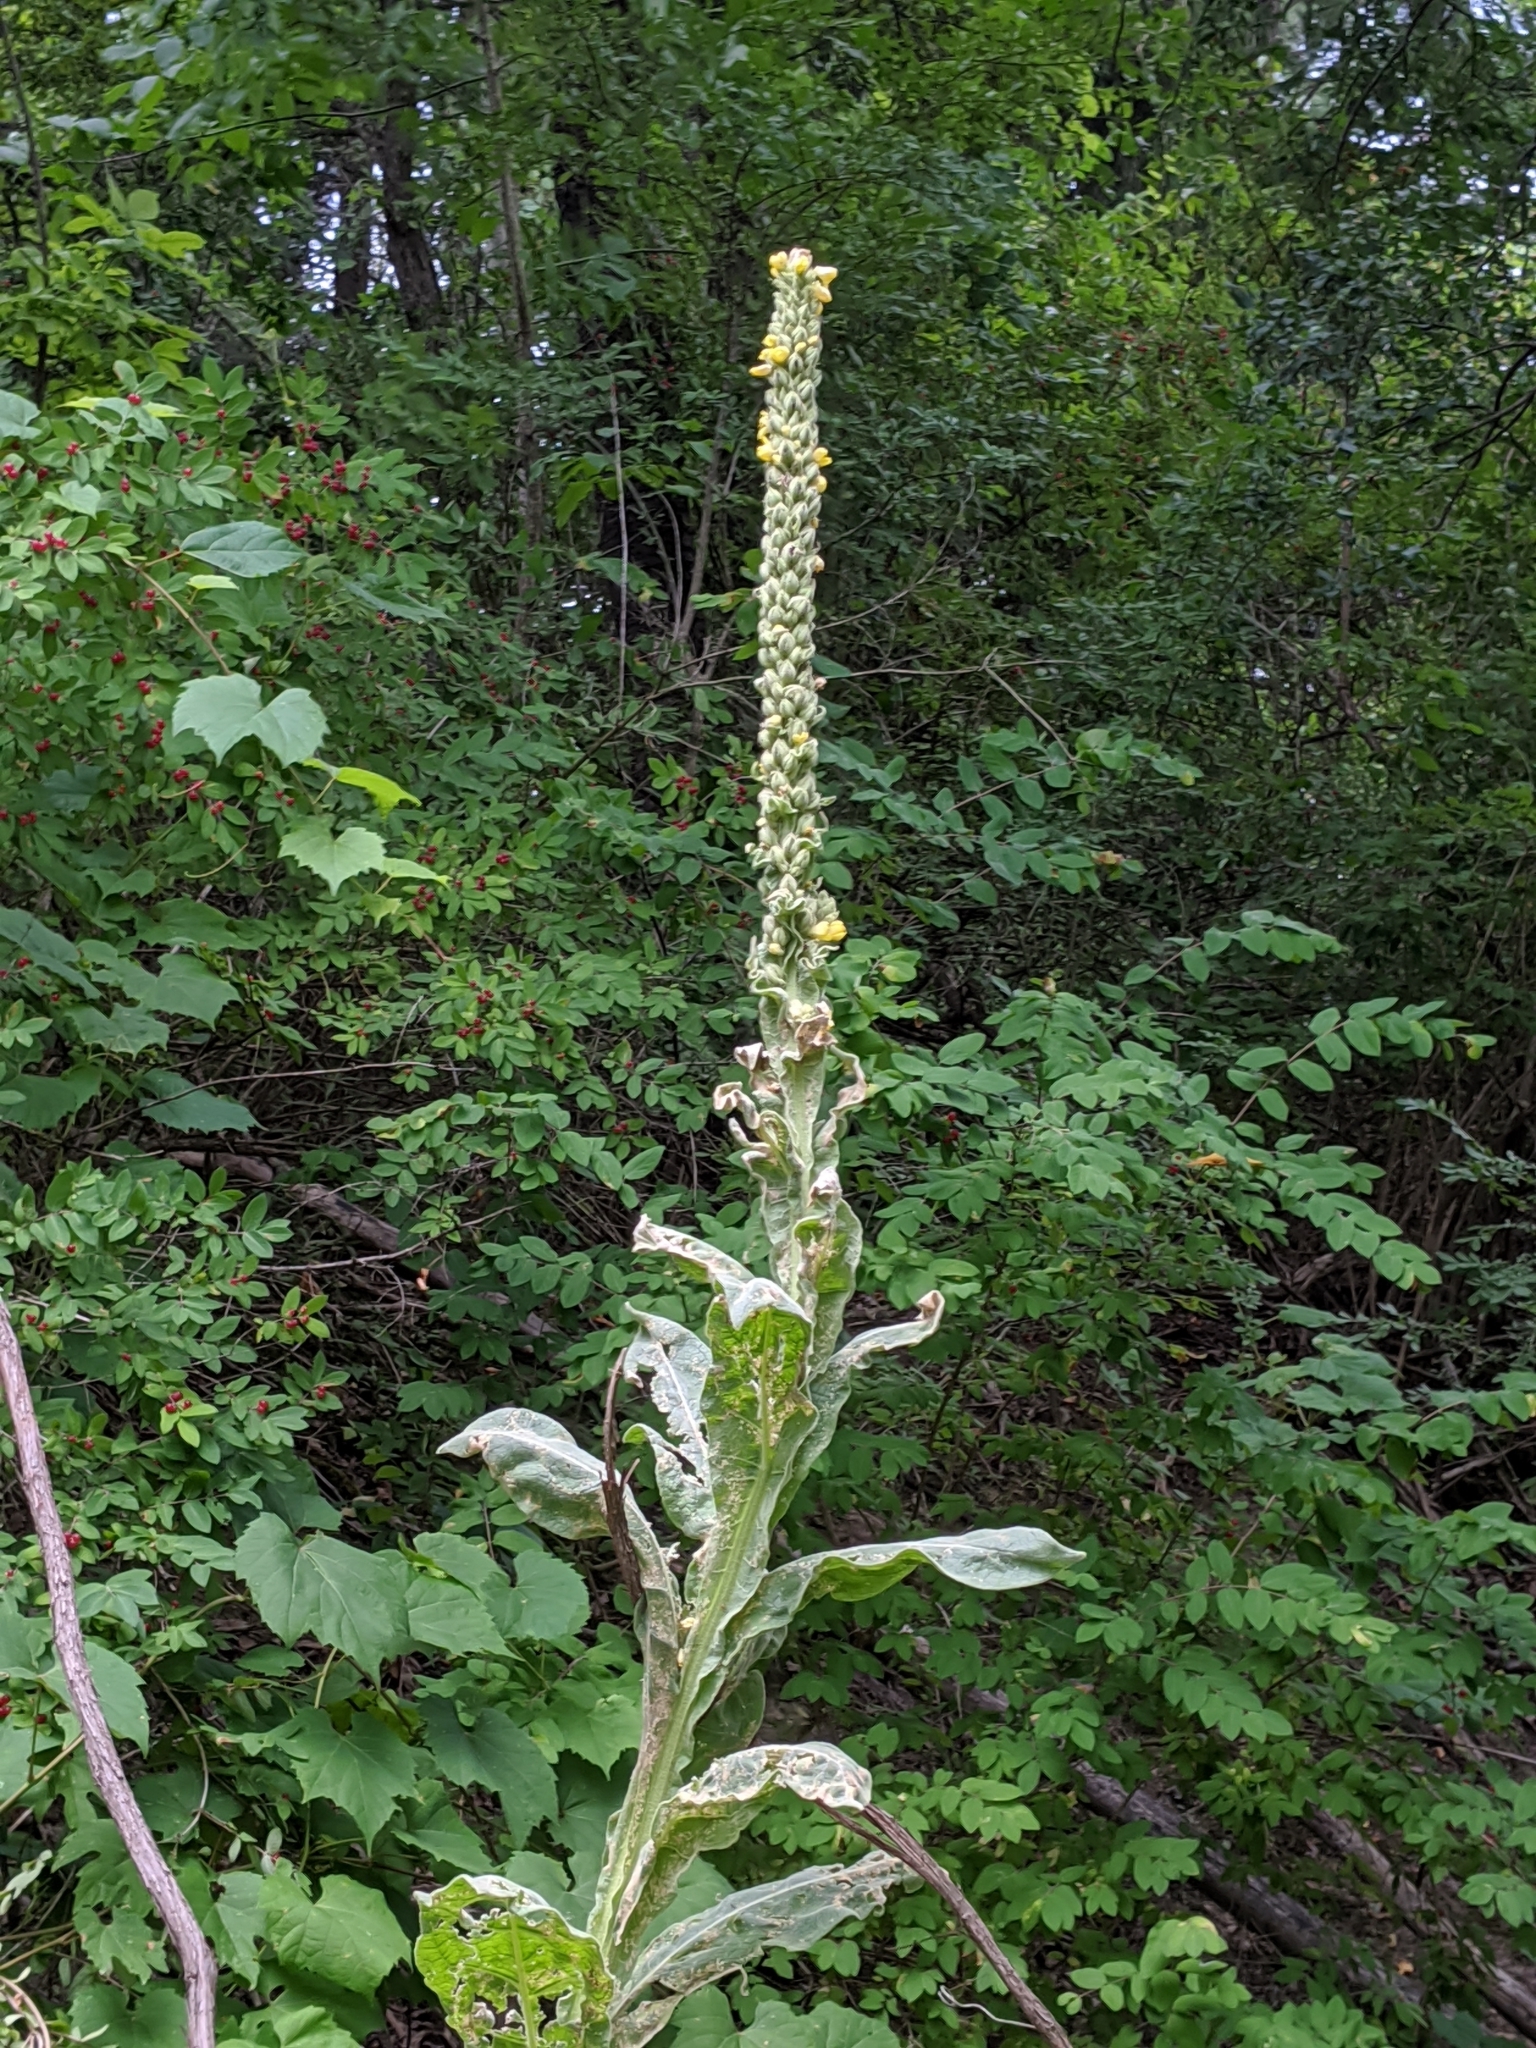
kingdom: Plantae
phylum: Tracheophyta
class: Magnoliopsida
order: Lamiales
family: Scrophulariaceae
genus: Verbascum
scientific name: Verbascum thapsus
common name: Common mullein
